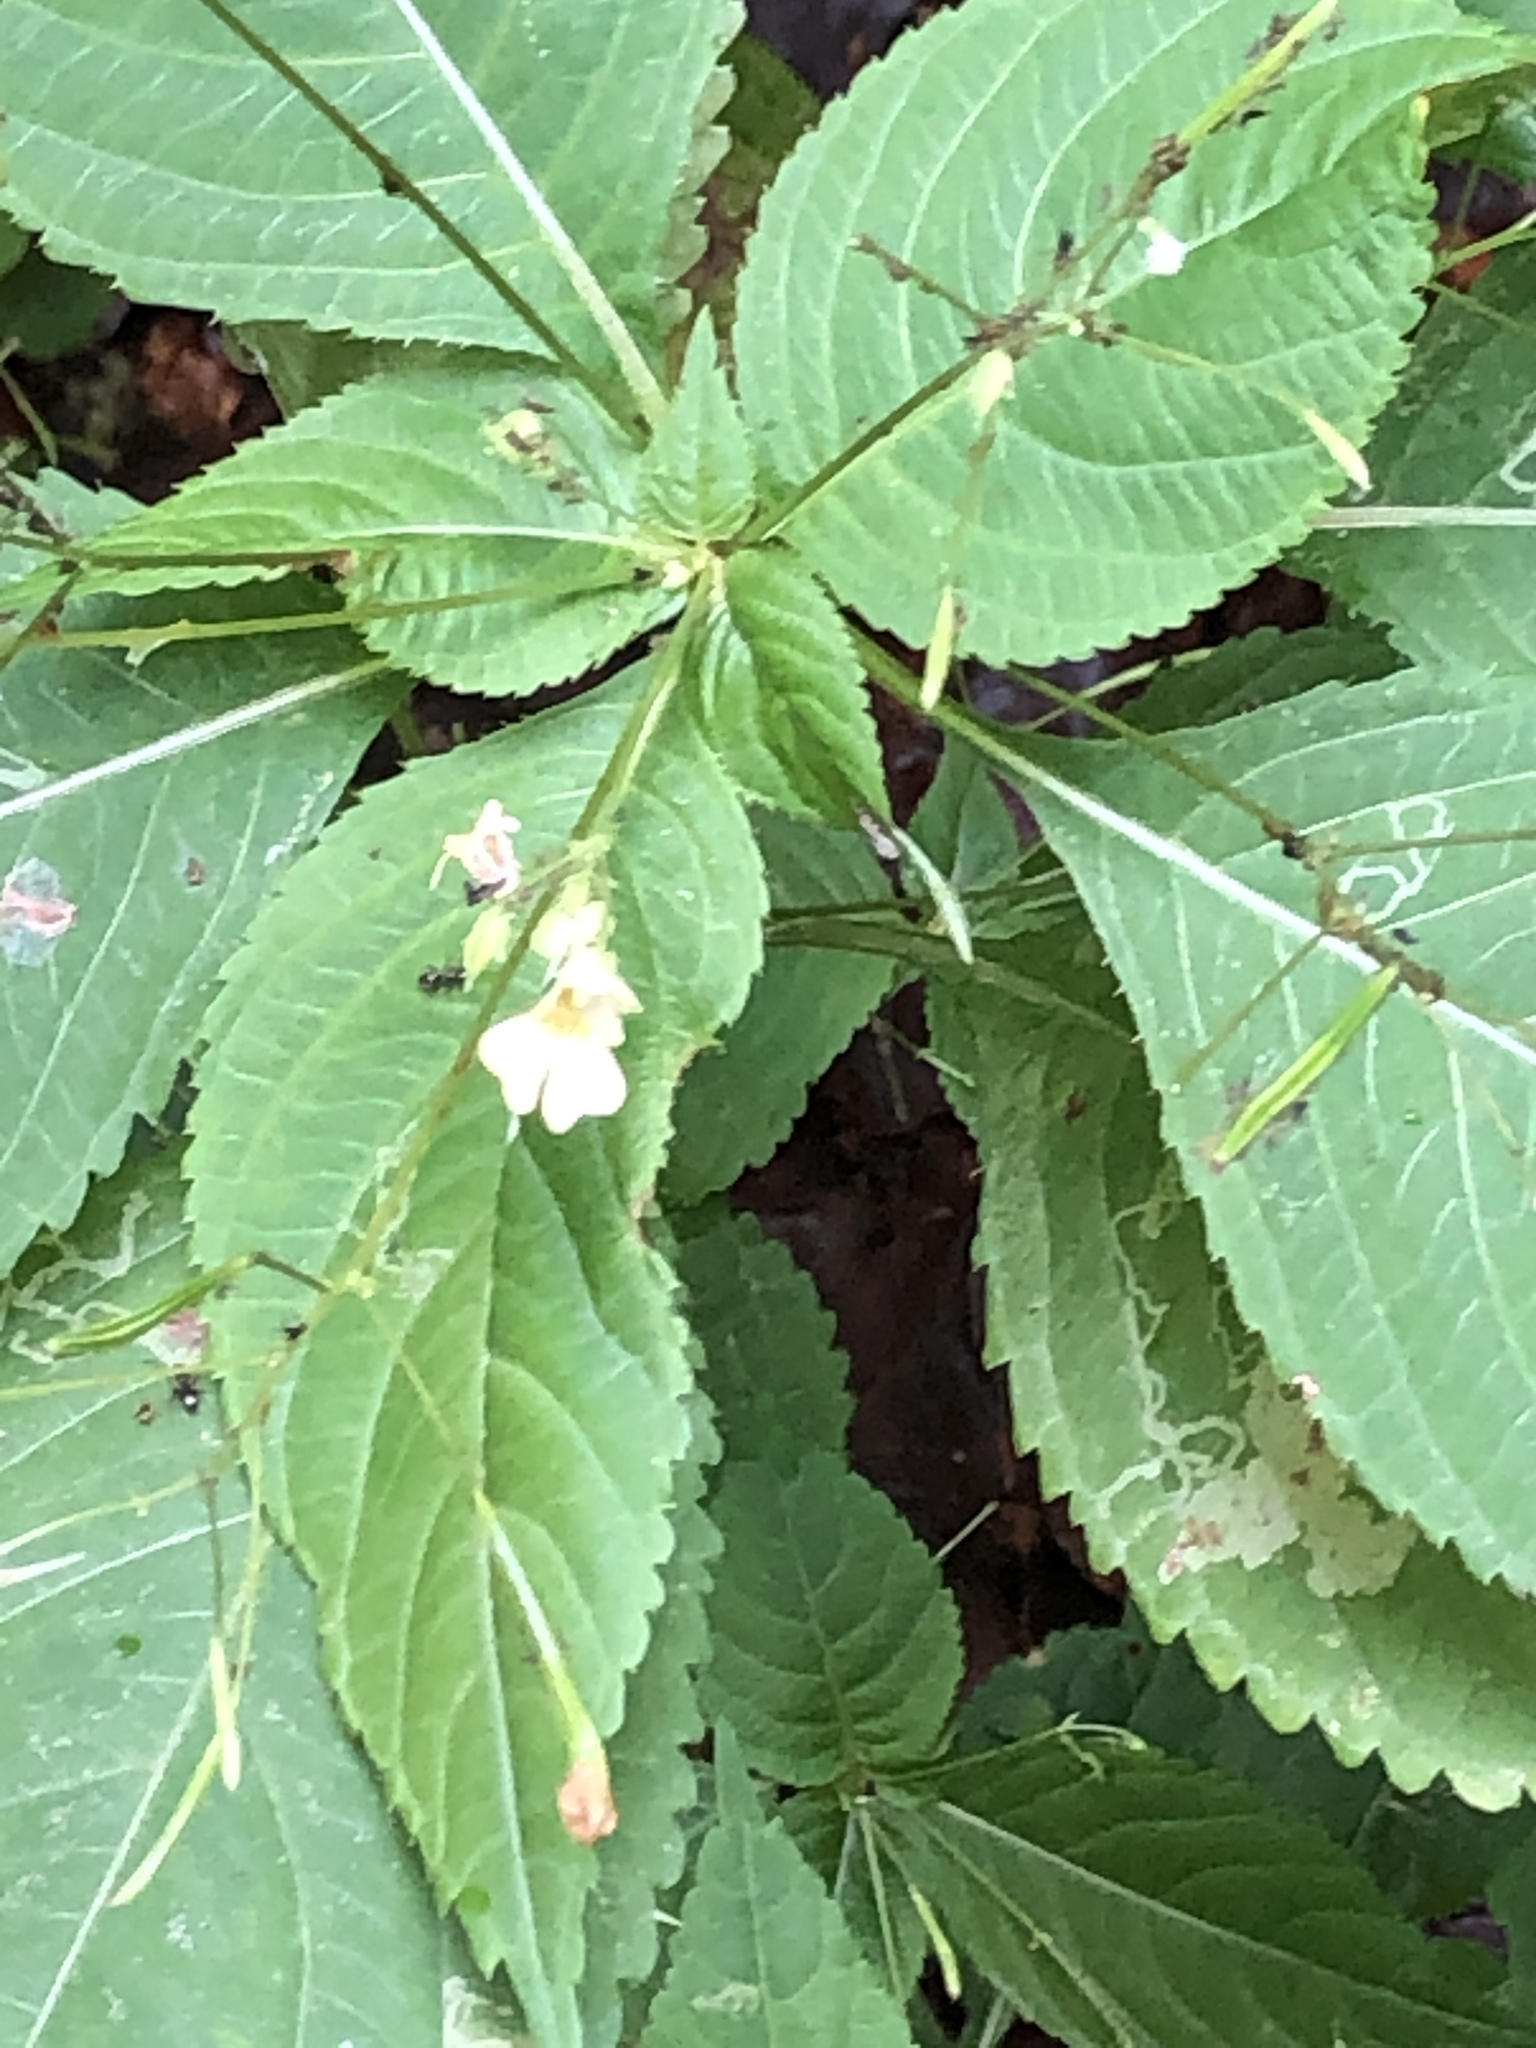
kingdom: Plantae
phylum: Tracheophyta
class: Magnoliopsida
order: Ericales
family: Balsaminaceae
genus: Impatiens
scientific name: Impatiens parviflora
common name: Small balsam
